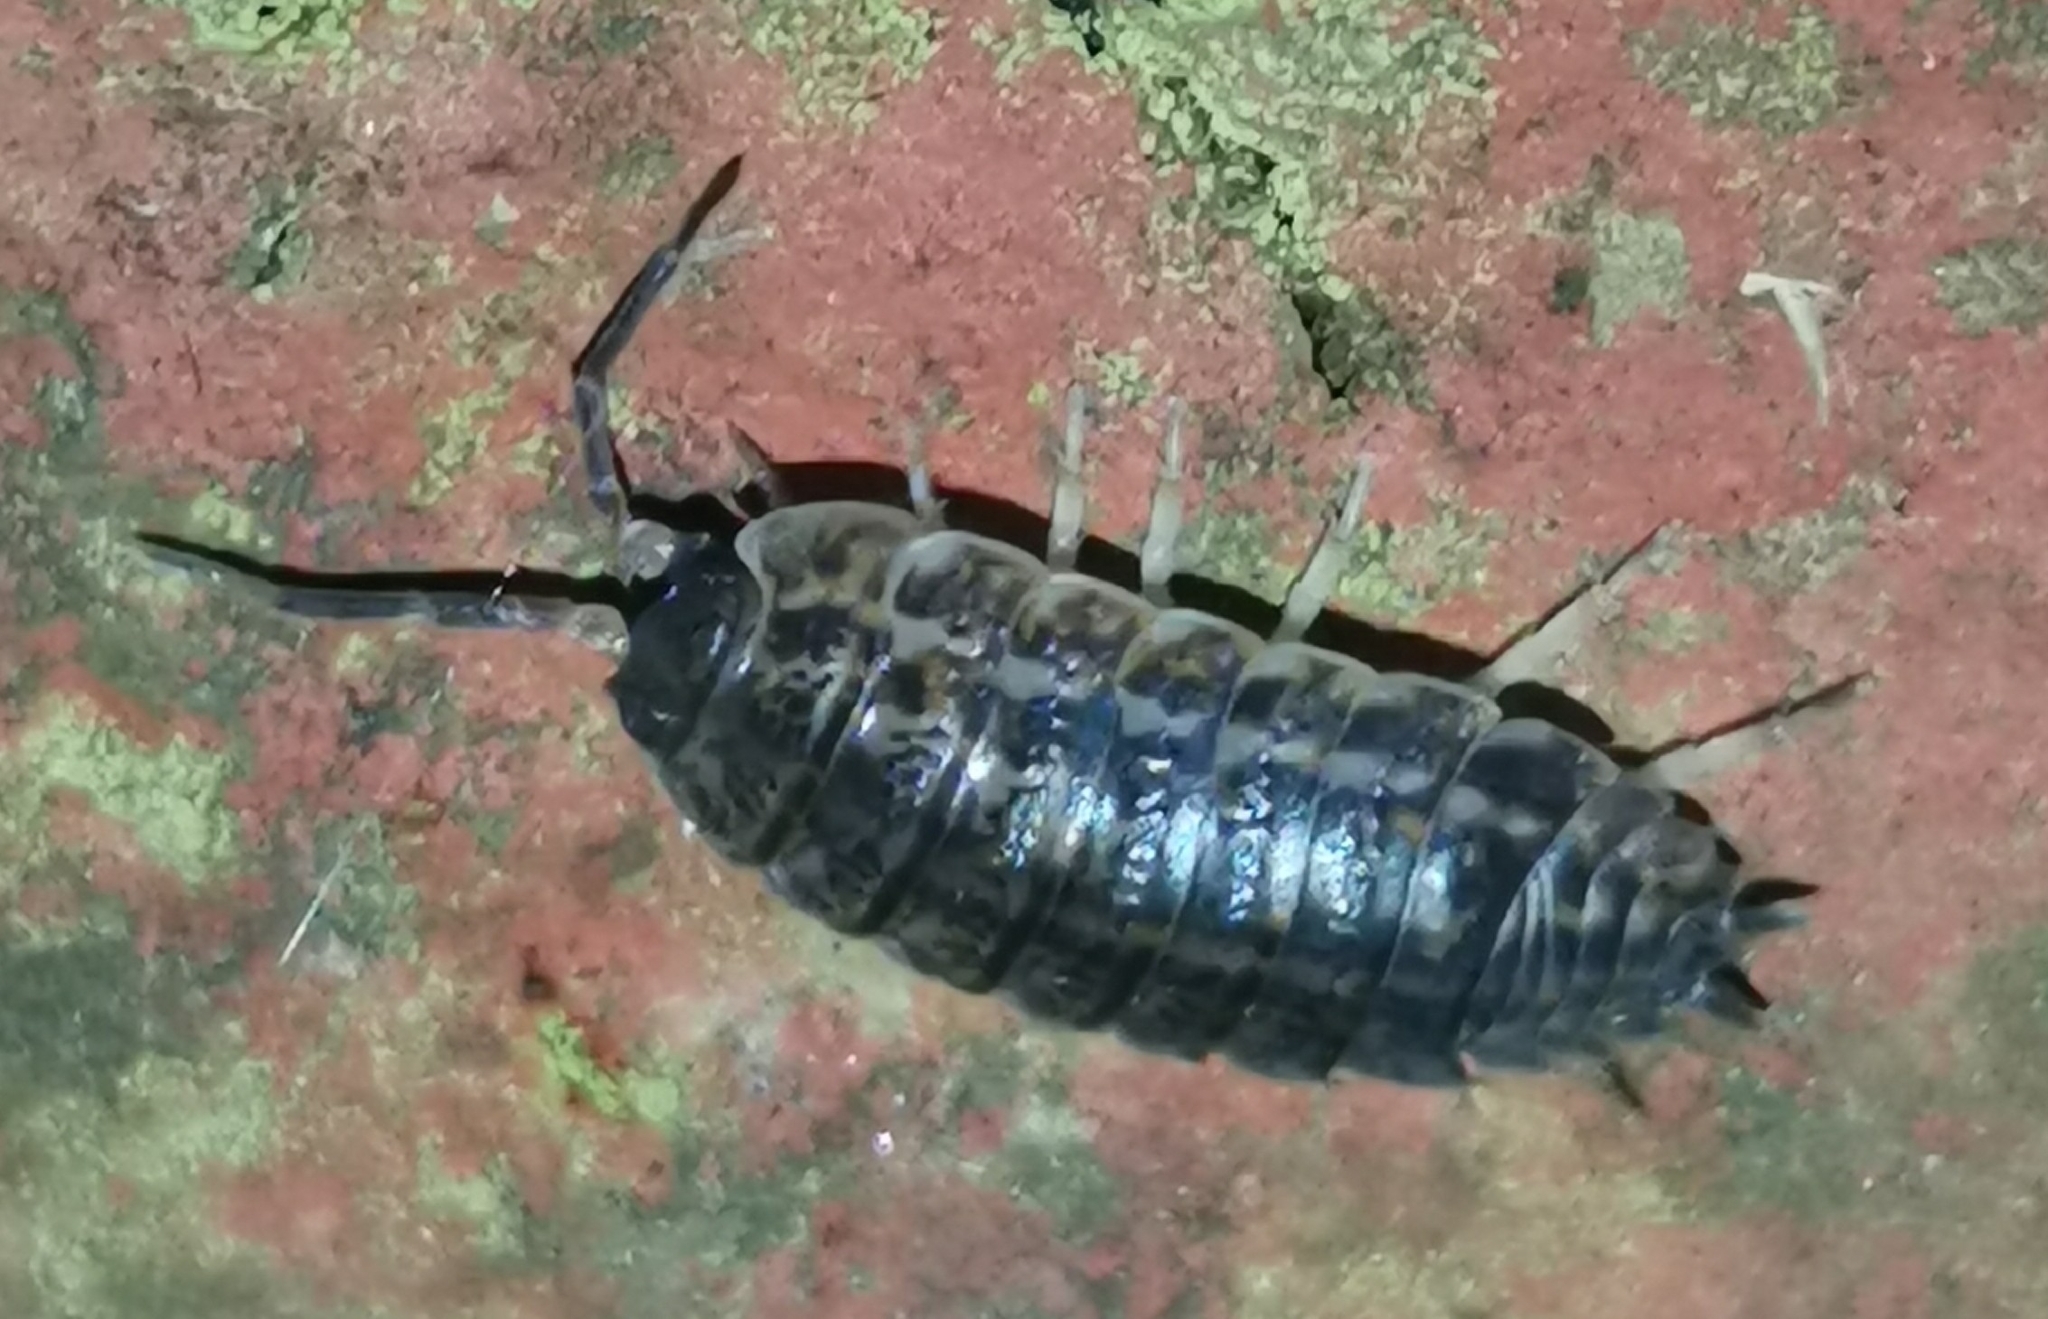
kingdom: Animalia
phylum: Arthropoda
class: Malacostraca
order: Isopoda
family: Trachelipodidae
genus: Trachelipus
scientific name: Trachelipus rathkii
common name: Isopod
